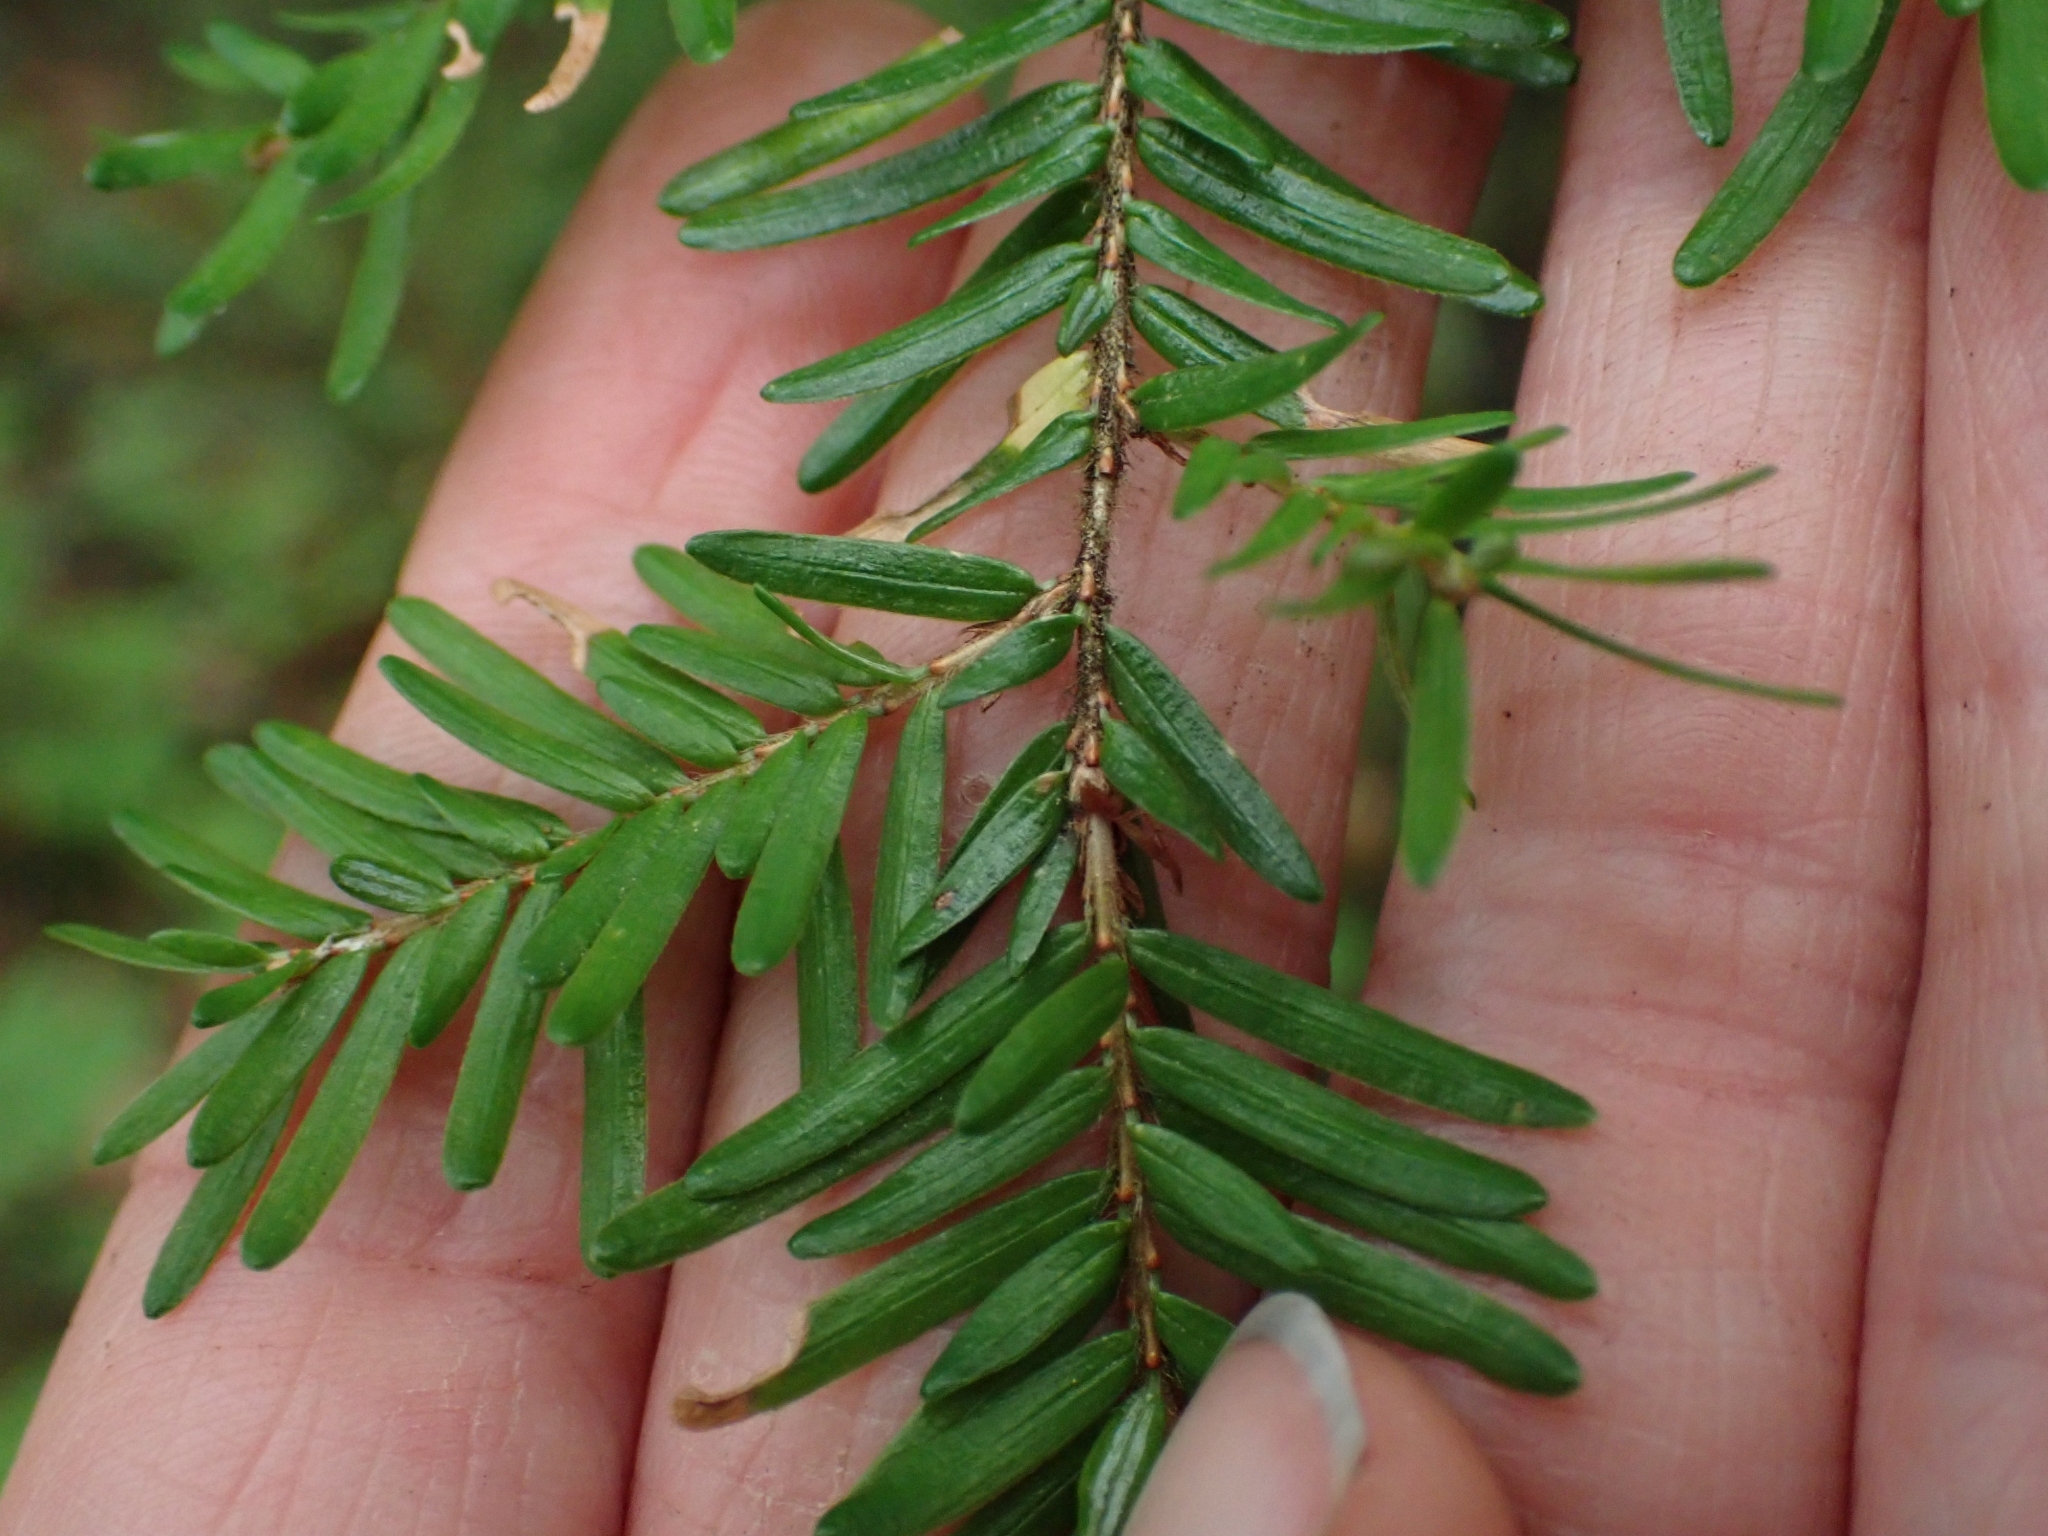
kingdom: Plantae
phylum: Tracheophyta
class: Pinopsida
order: Pinales
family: Pinaceae
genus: Tsuga
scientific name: Tsuga heterophylla
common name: Western hemlock
